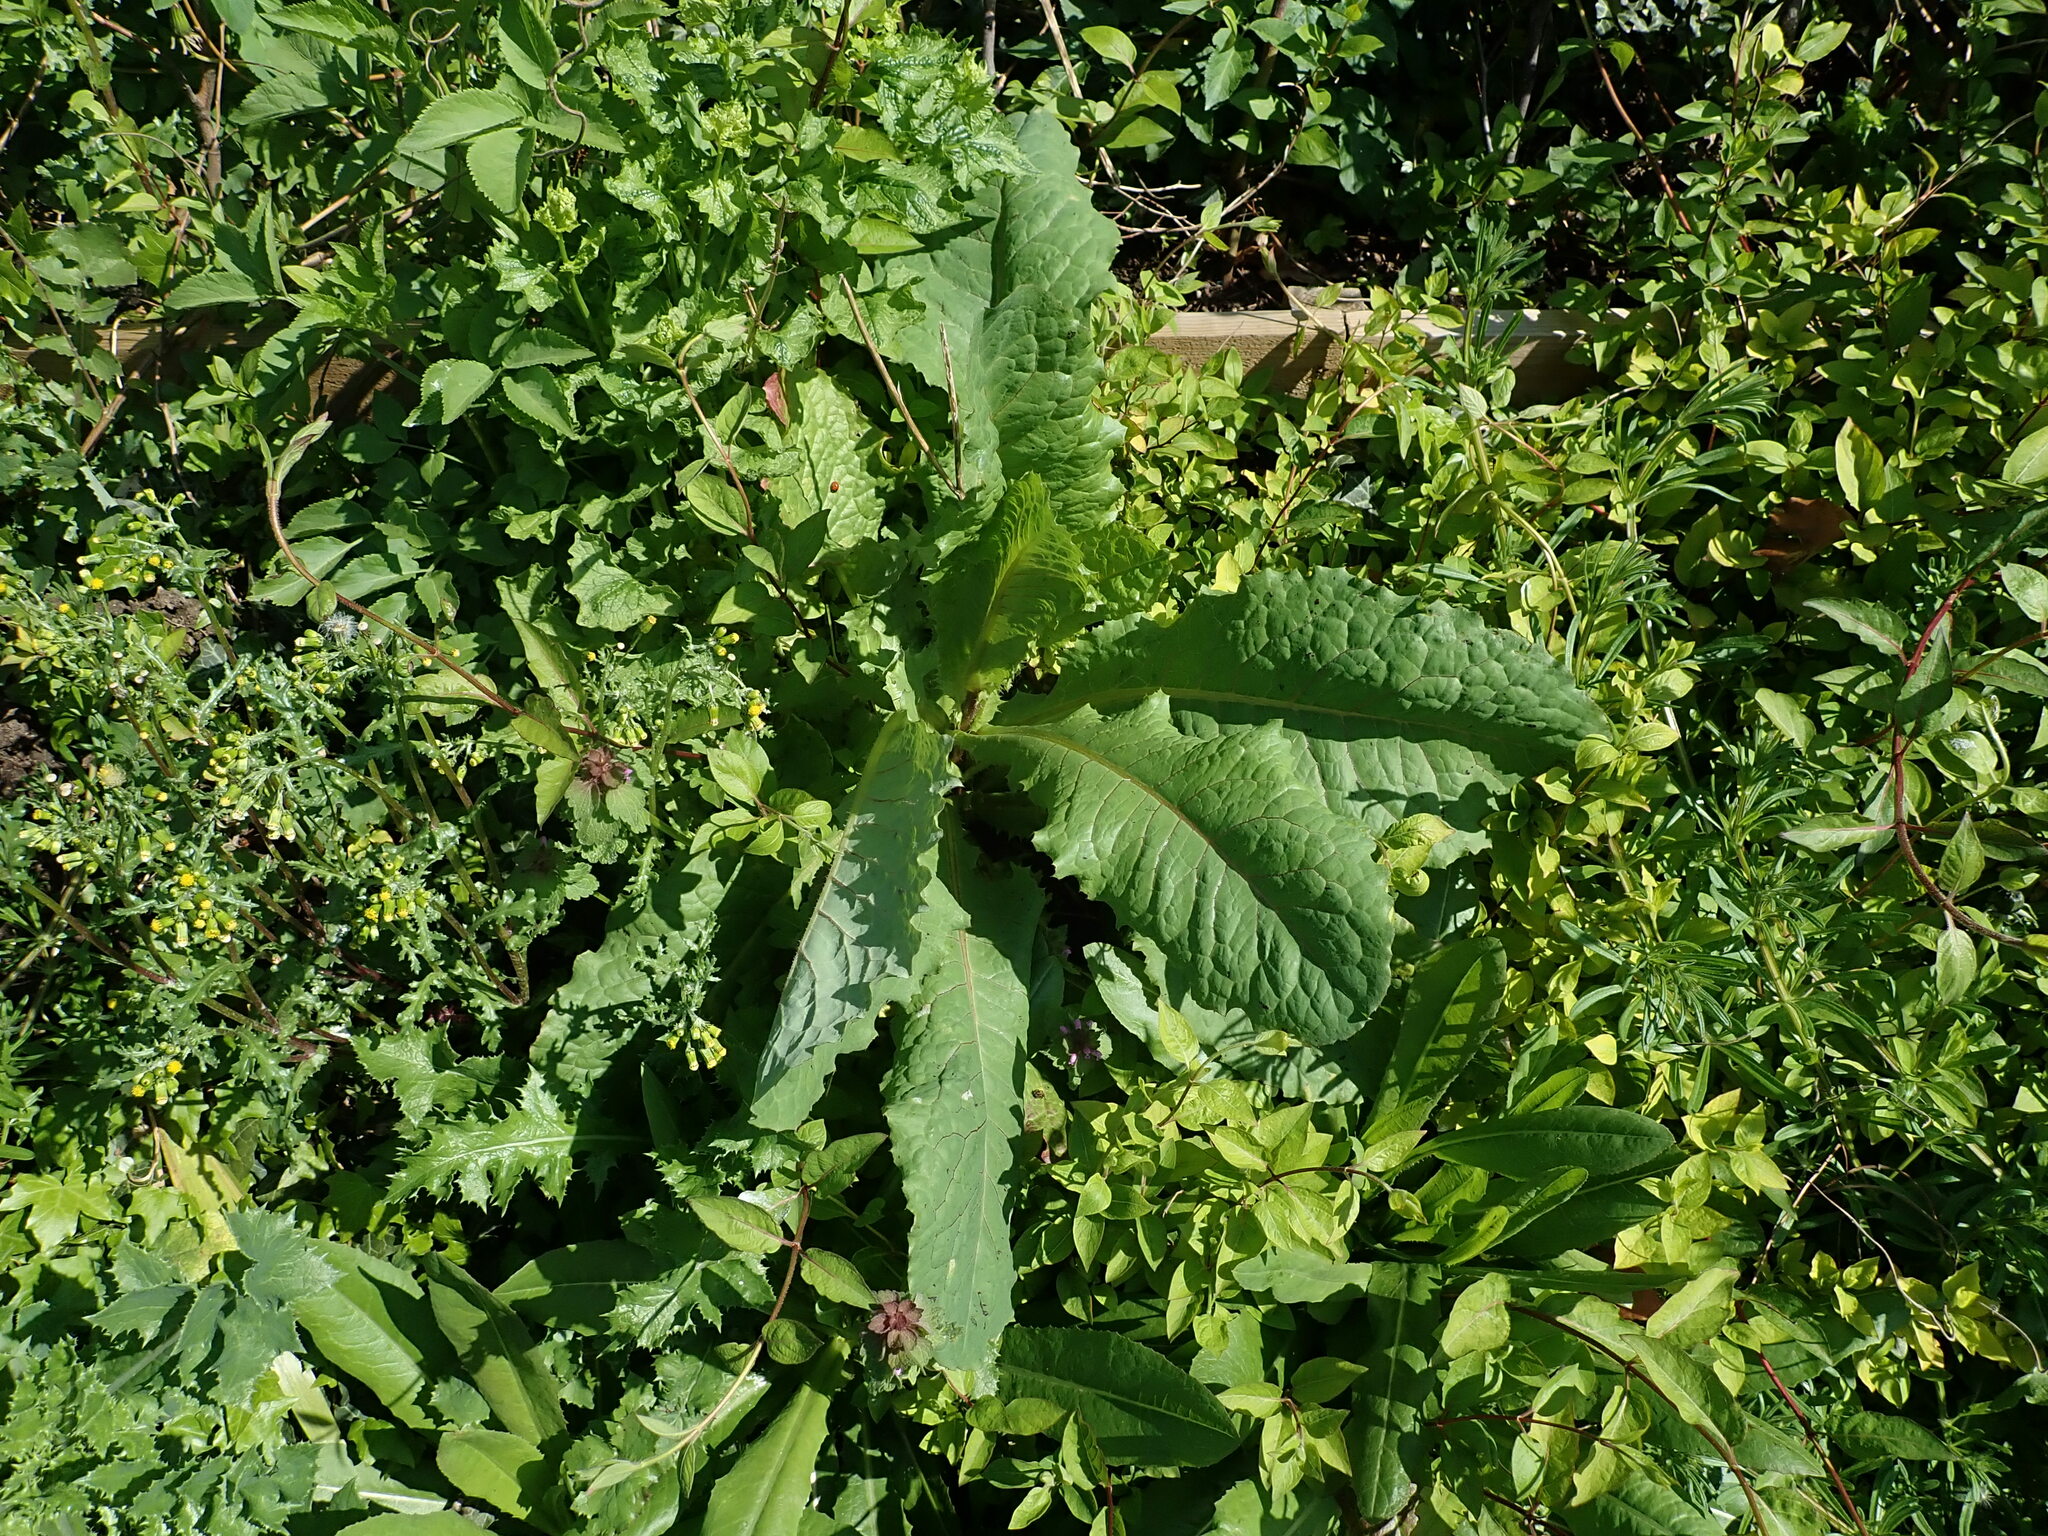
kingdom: Plantae
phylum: Tracheophyta
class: Magnoliopsida
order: Asterales
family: Asteraceae
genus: Lactuca
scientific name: Lactuca virosa
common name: Great lettuce
